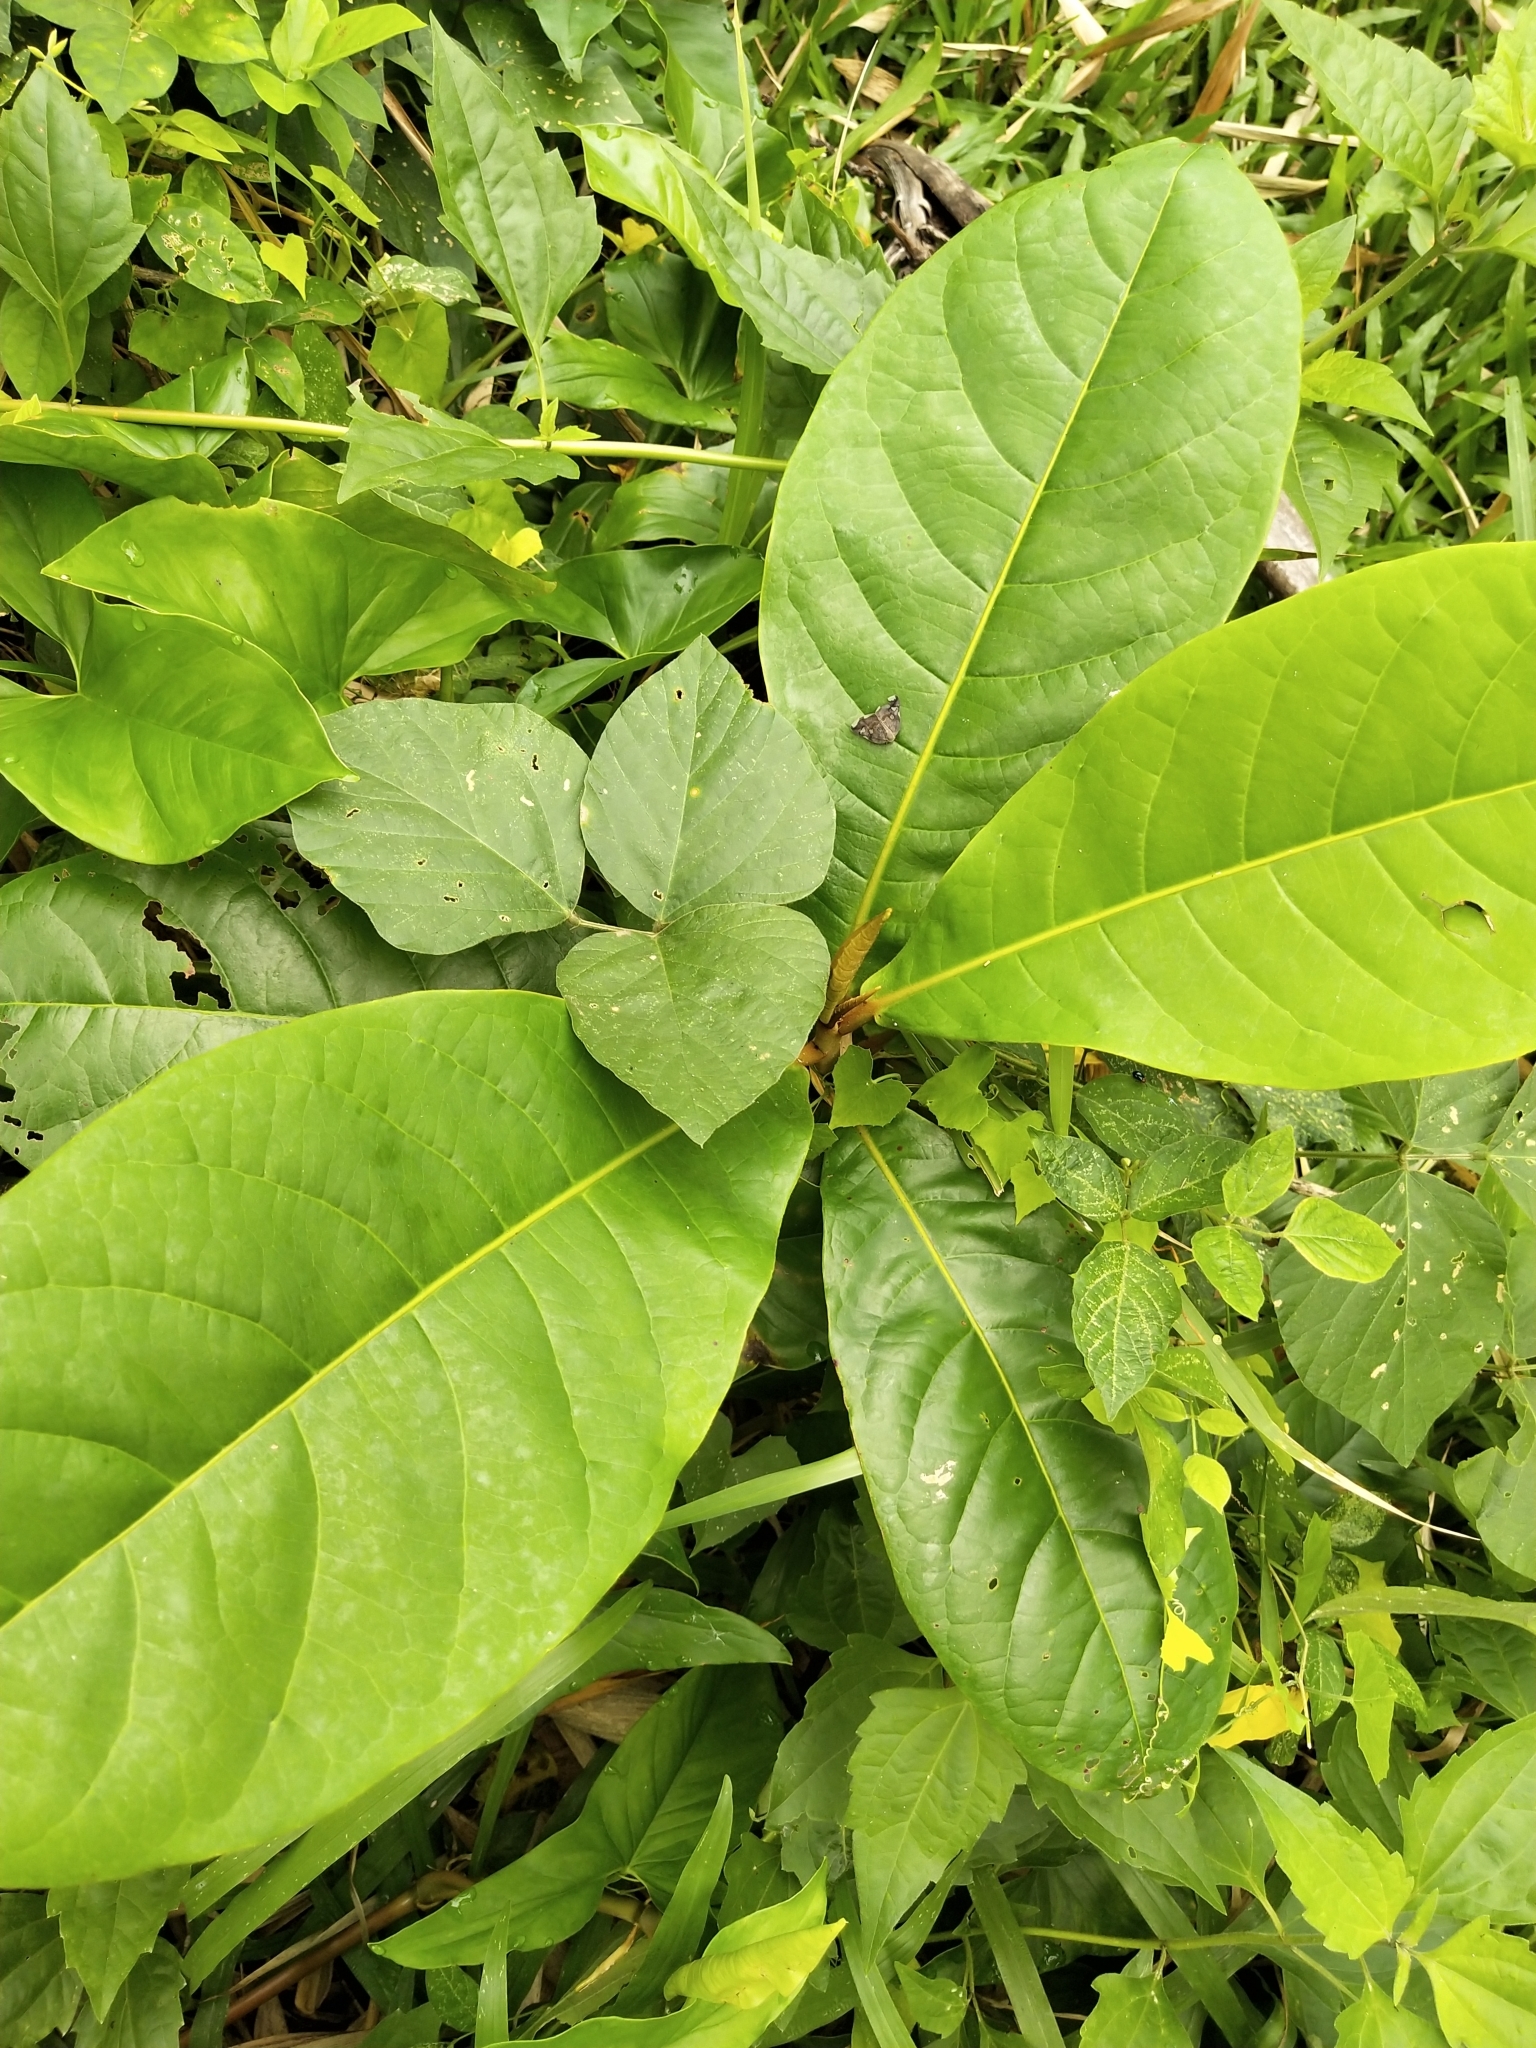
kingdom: Plantae
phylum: Tracheophyta
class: Magnoliopsida
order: Myrtales
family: Combretaceae
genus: Terminalia
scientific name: Terminalia catappa
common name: Tropical almond
